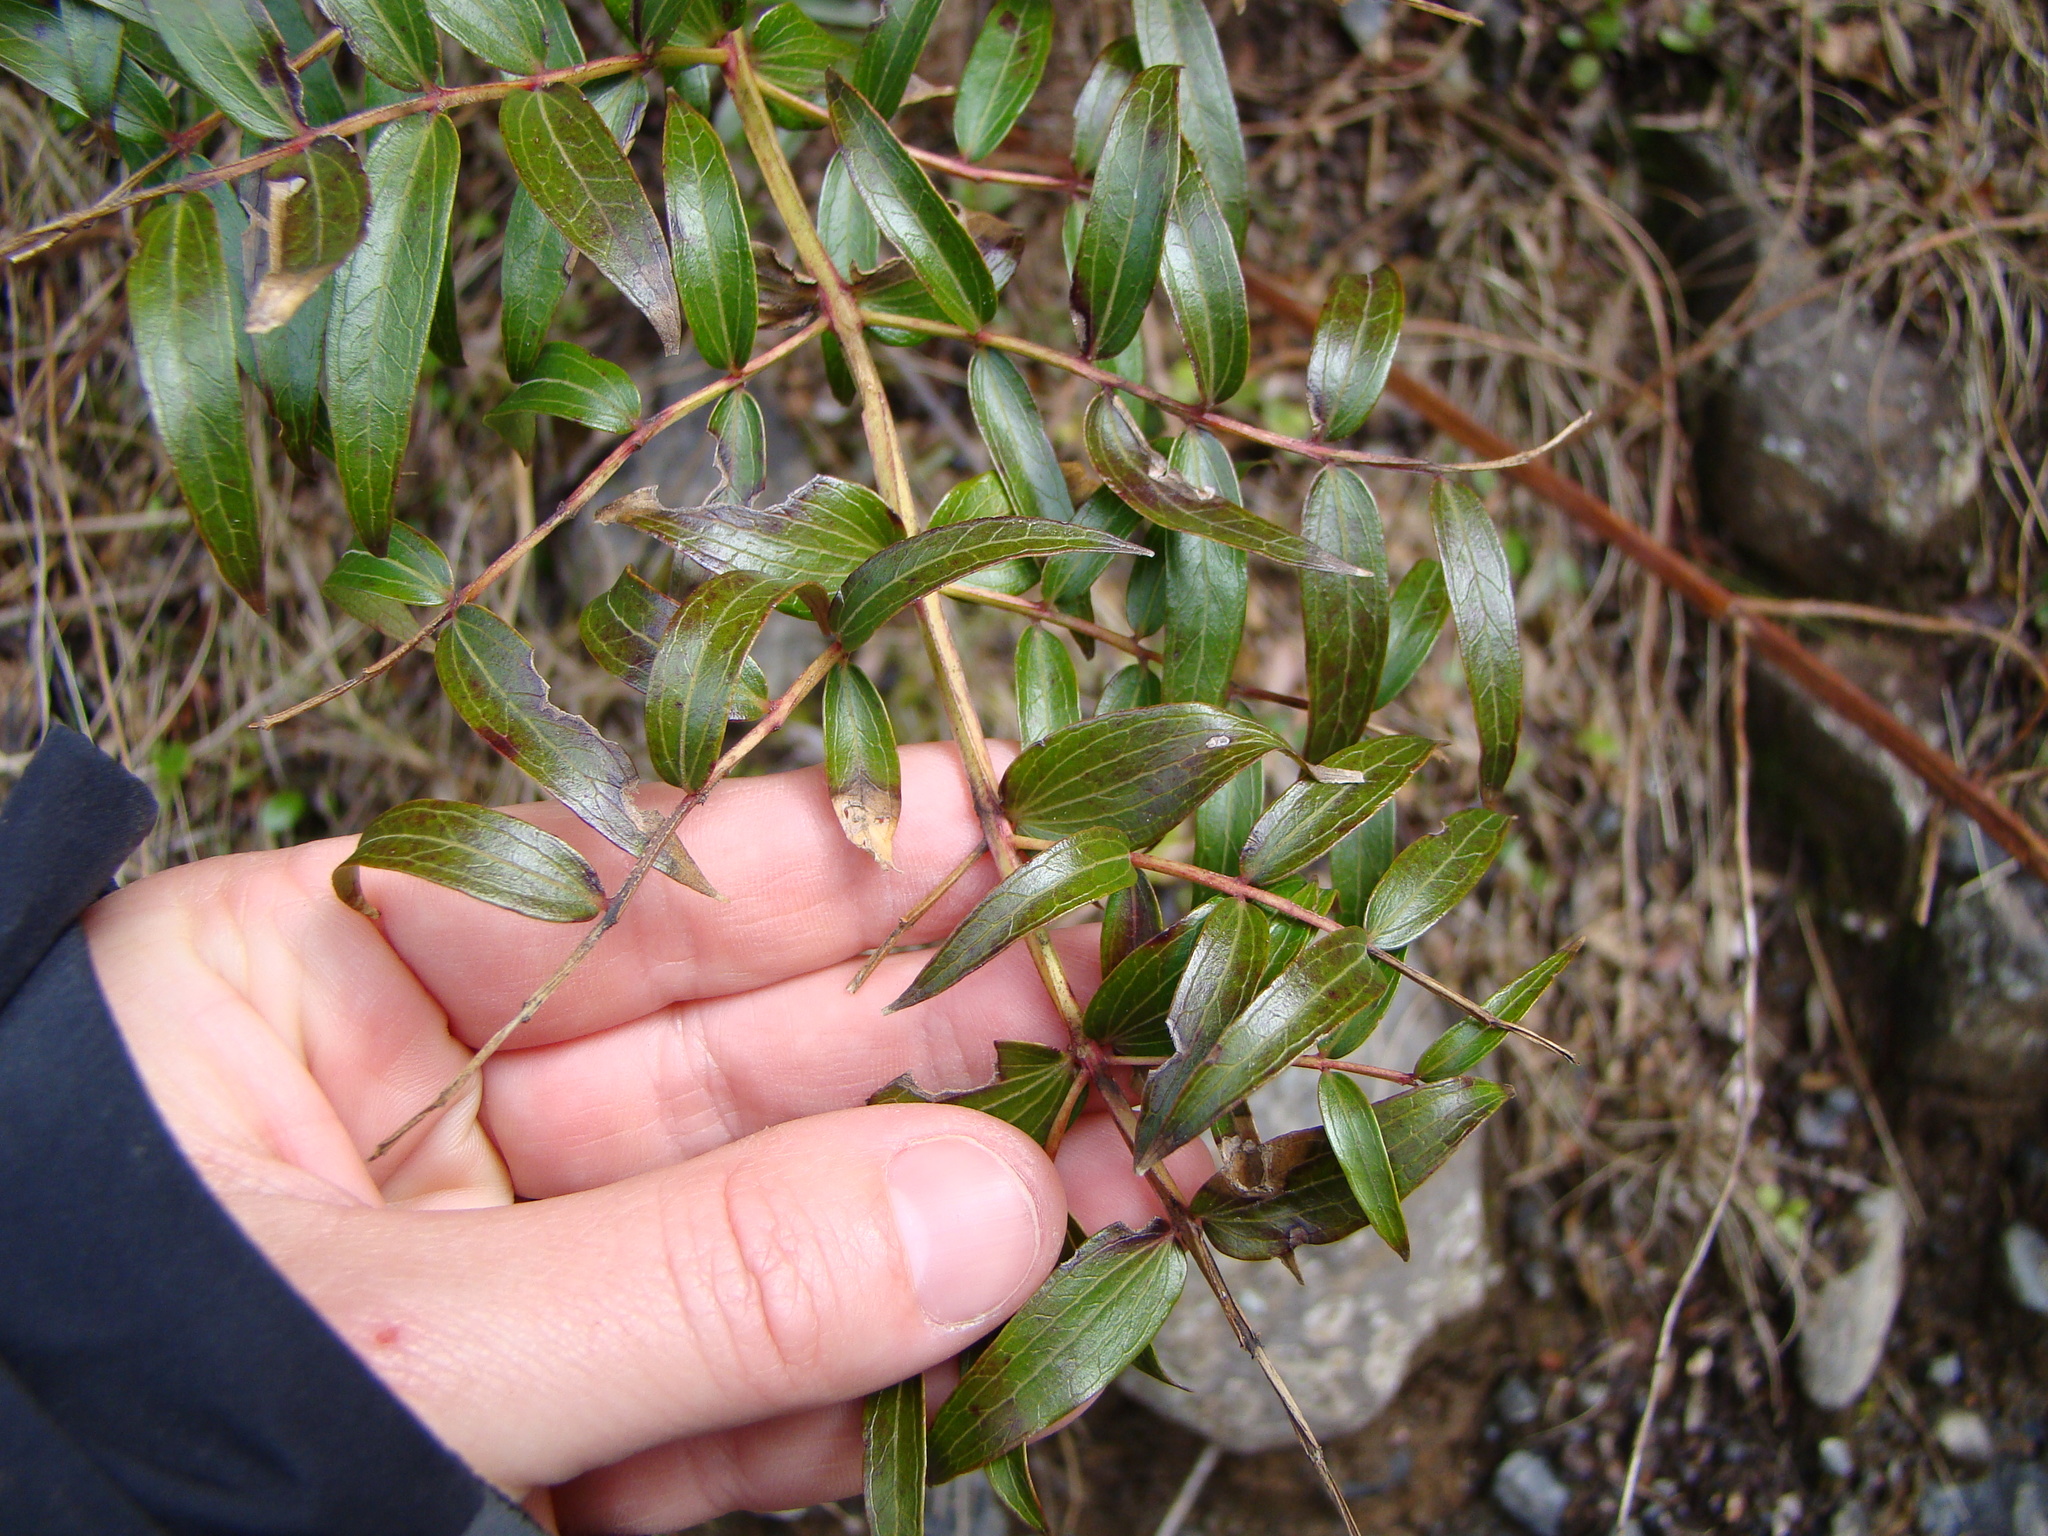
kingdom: Plantae
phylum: Tracheophyta
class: Magnoliopsida
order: Cucurbitales
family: Coriariaceae
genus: Coriaria
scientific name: Coriaria pteridoides
